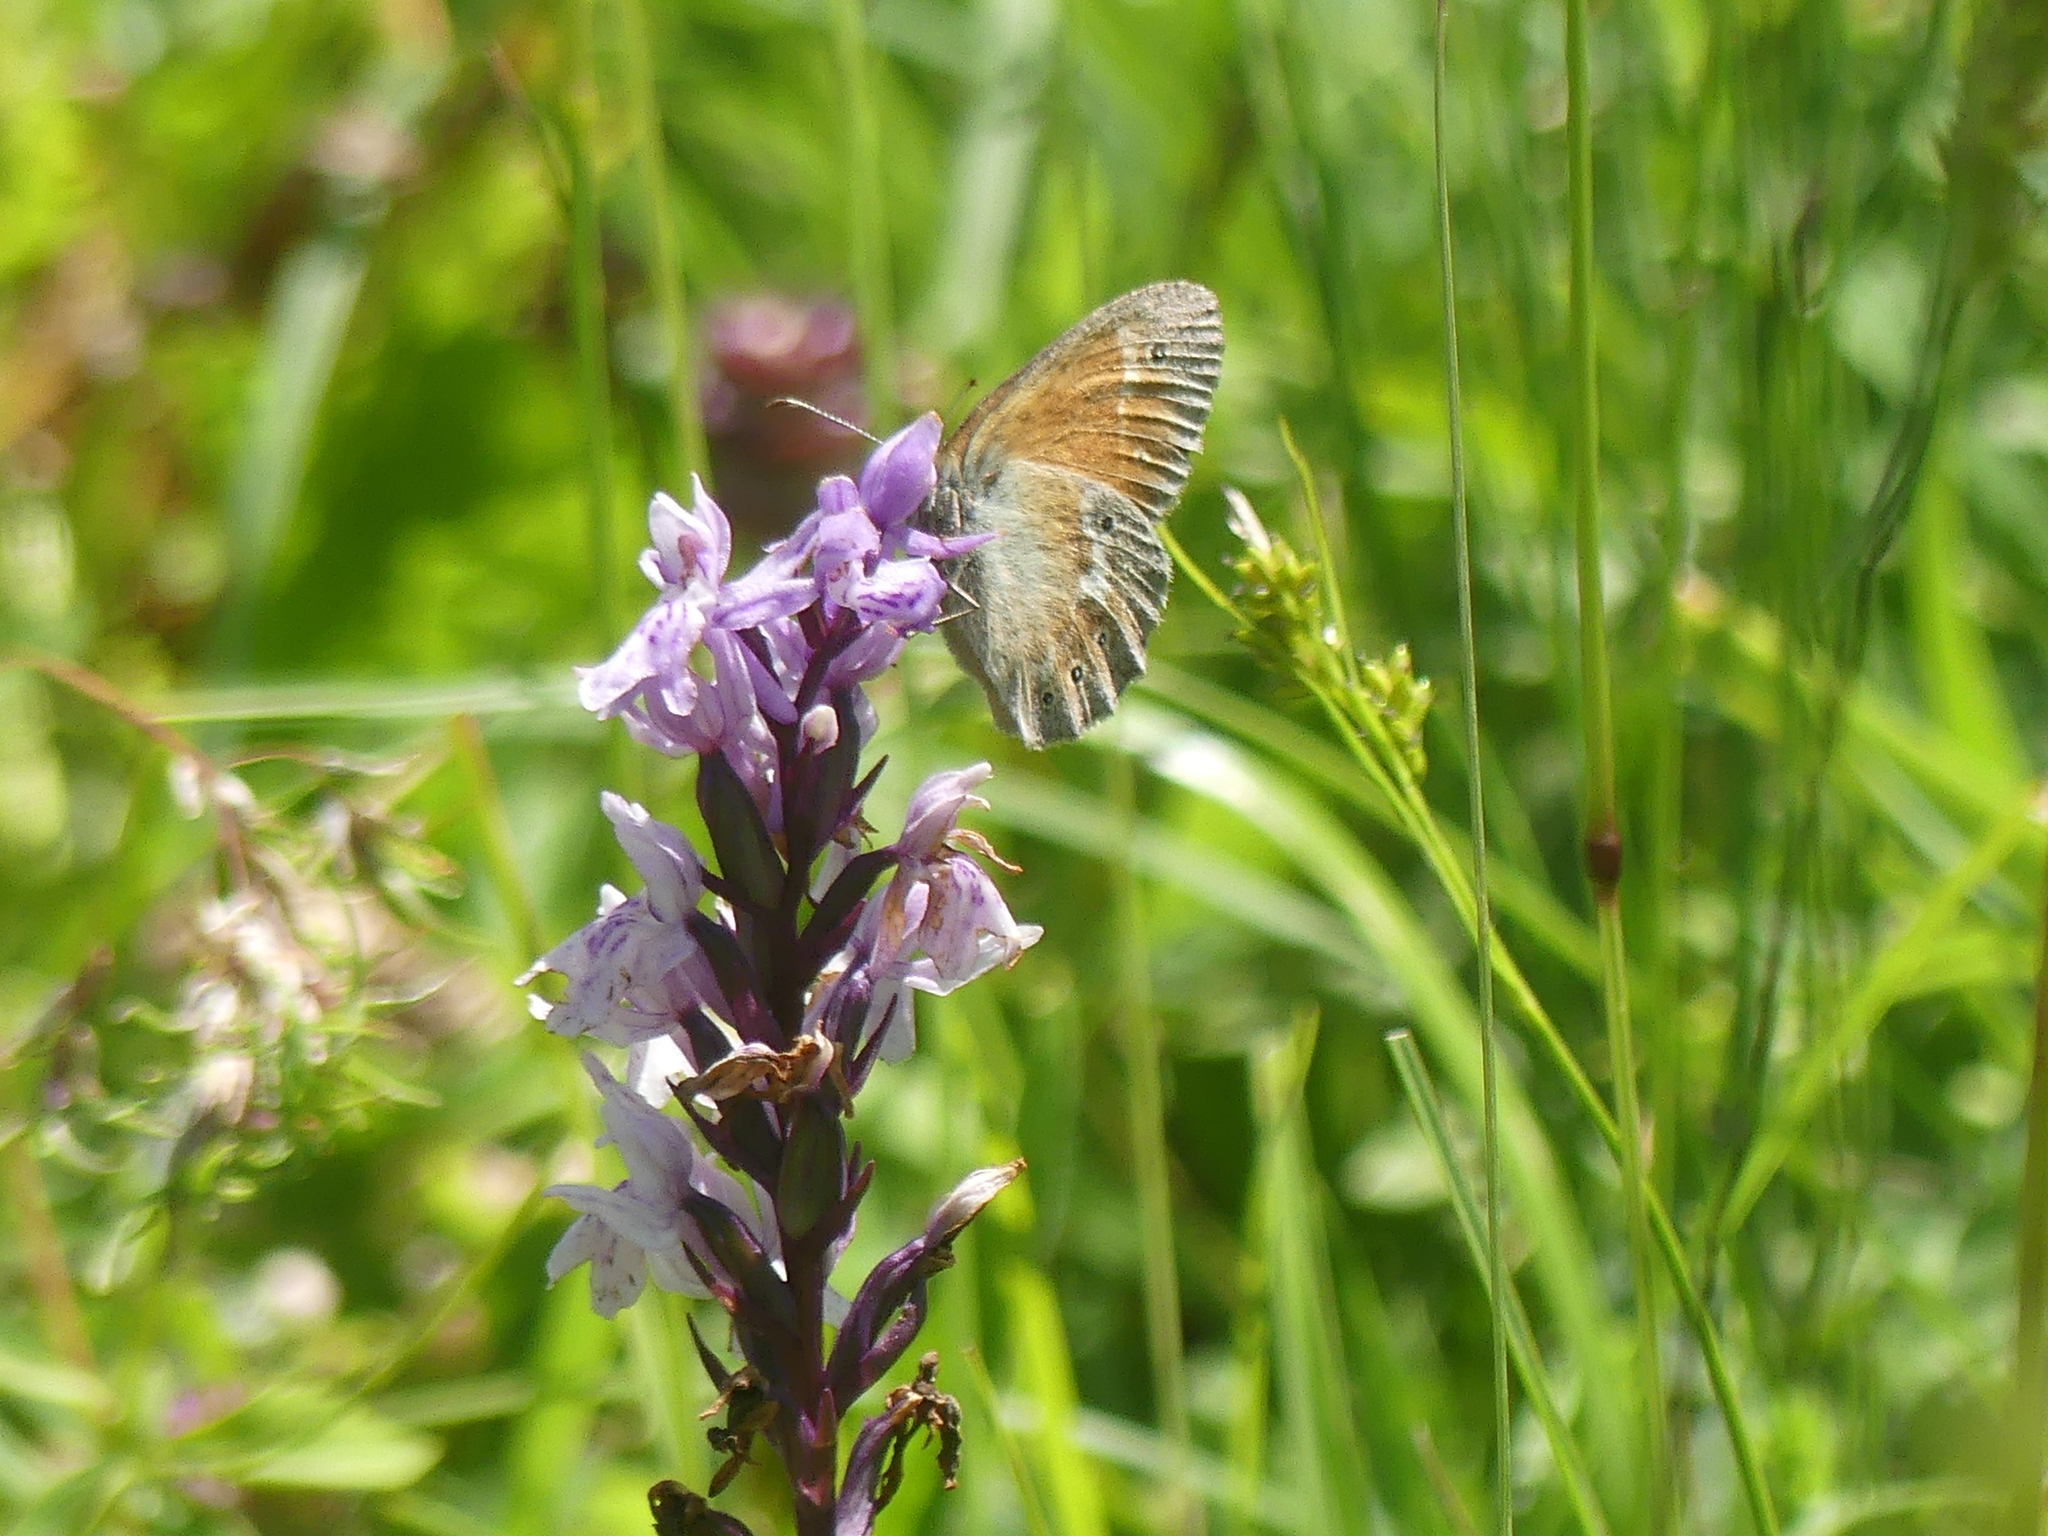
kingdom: Animalia
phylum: Arthropoda
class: Insecta
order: Lepidoptera
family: Nymphalidae
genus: Coenonympha
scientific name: Coenonympha tullia
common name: Large heath
